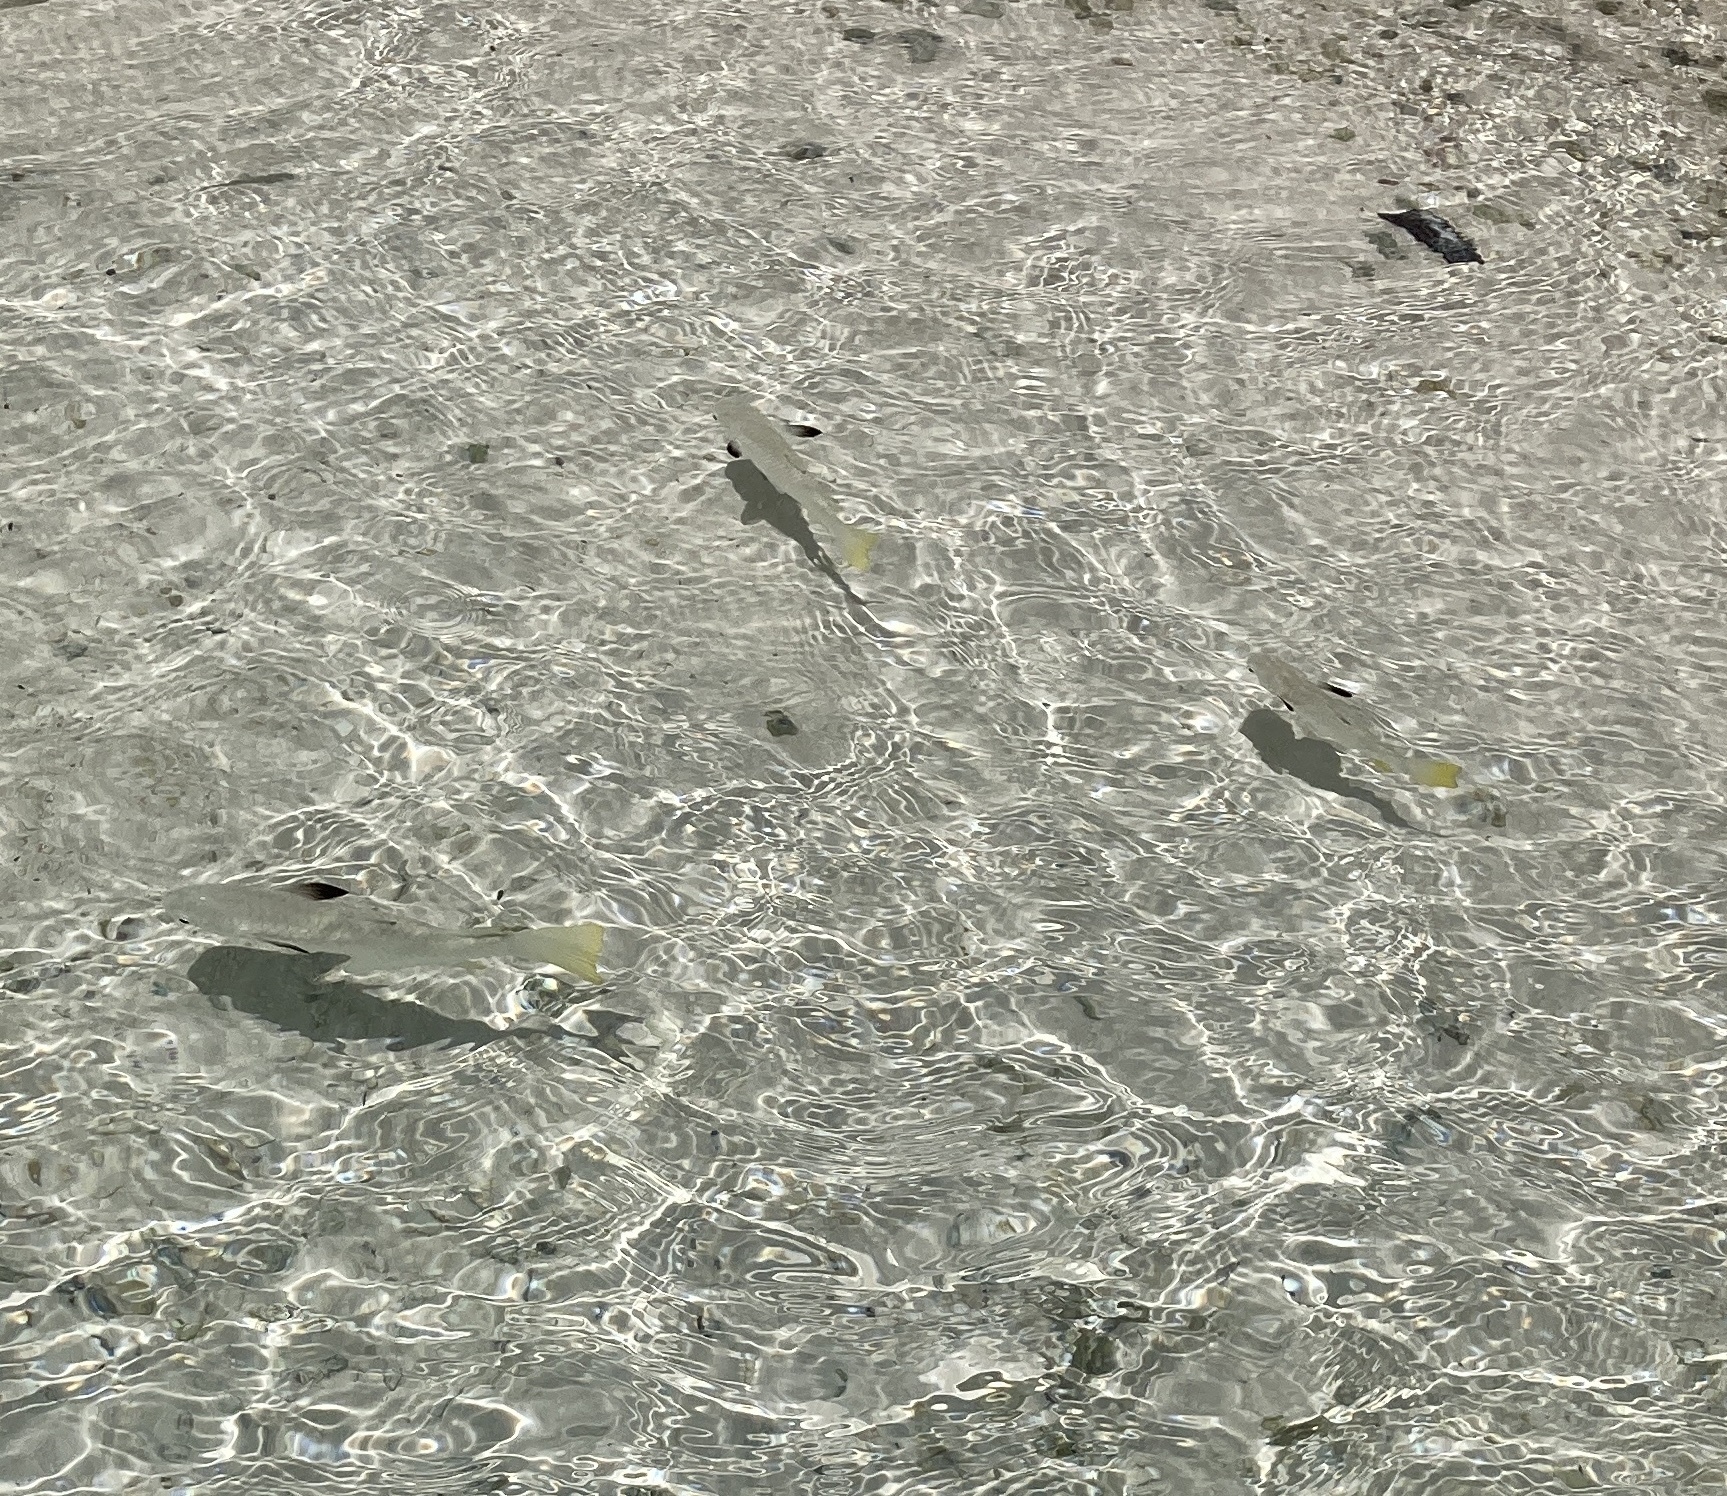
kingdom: Animalia
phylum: Chordata
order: Mugiliformes
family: Mugilidae
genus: Ellochelon
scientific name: Ellochelon vaigiensis
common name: Squaretail mullet
